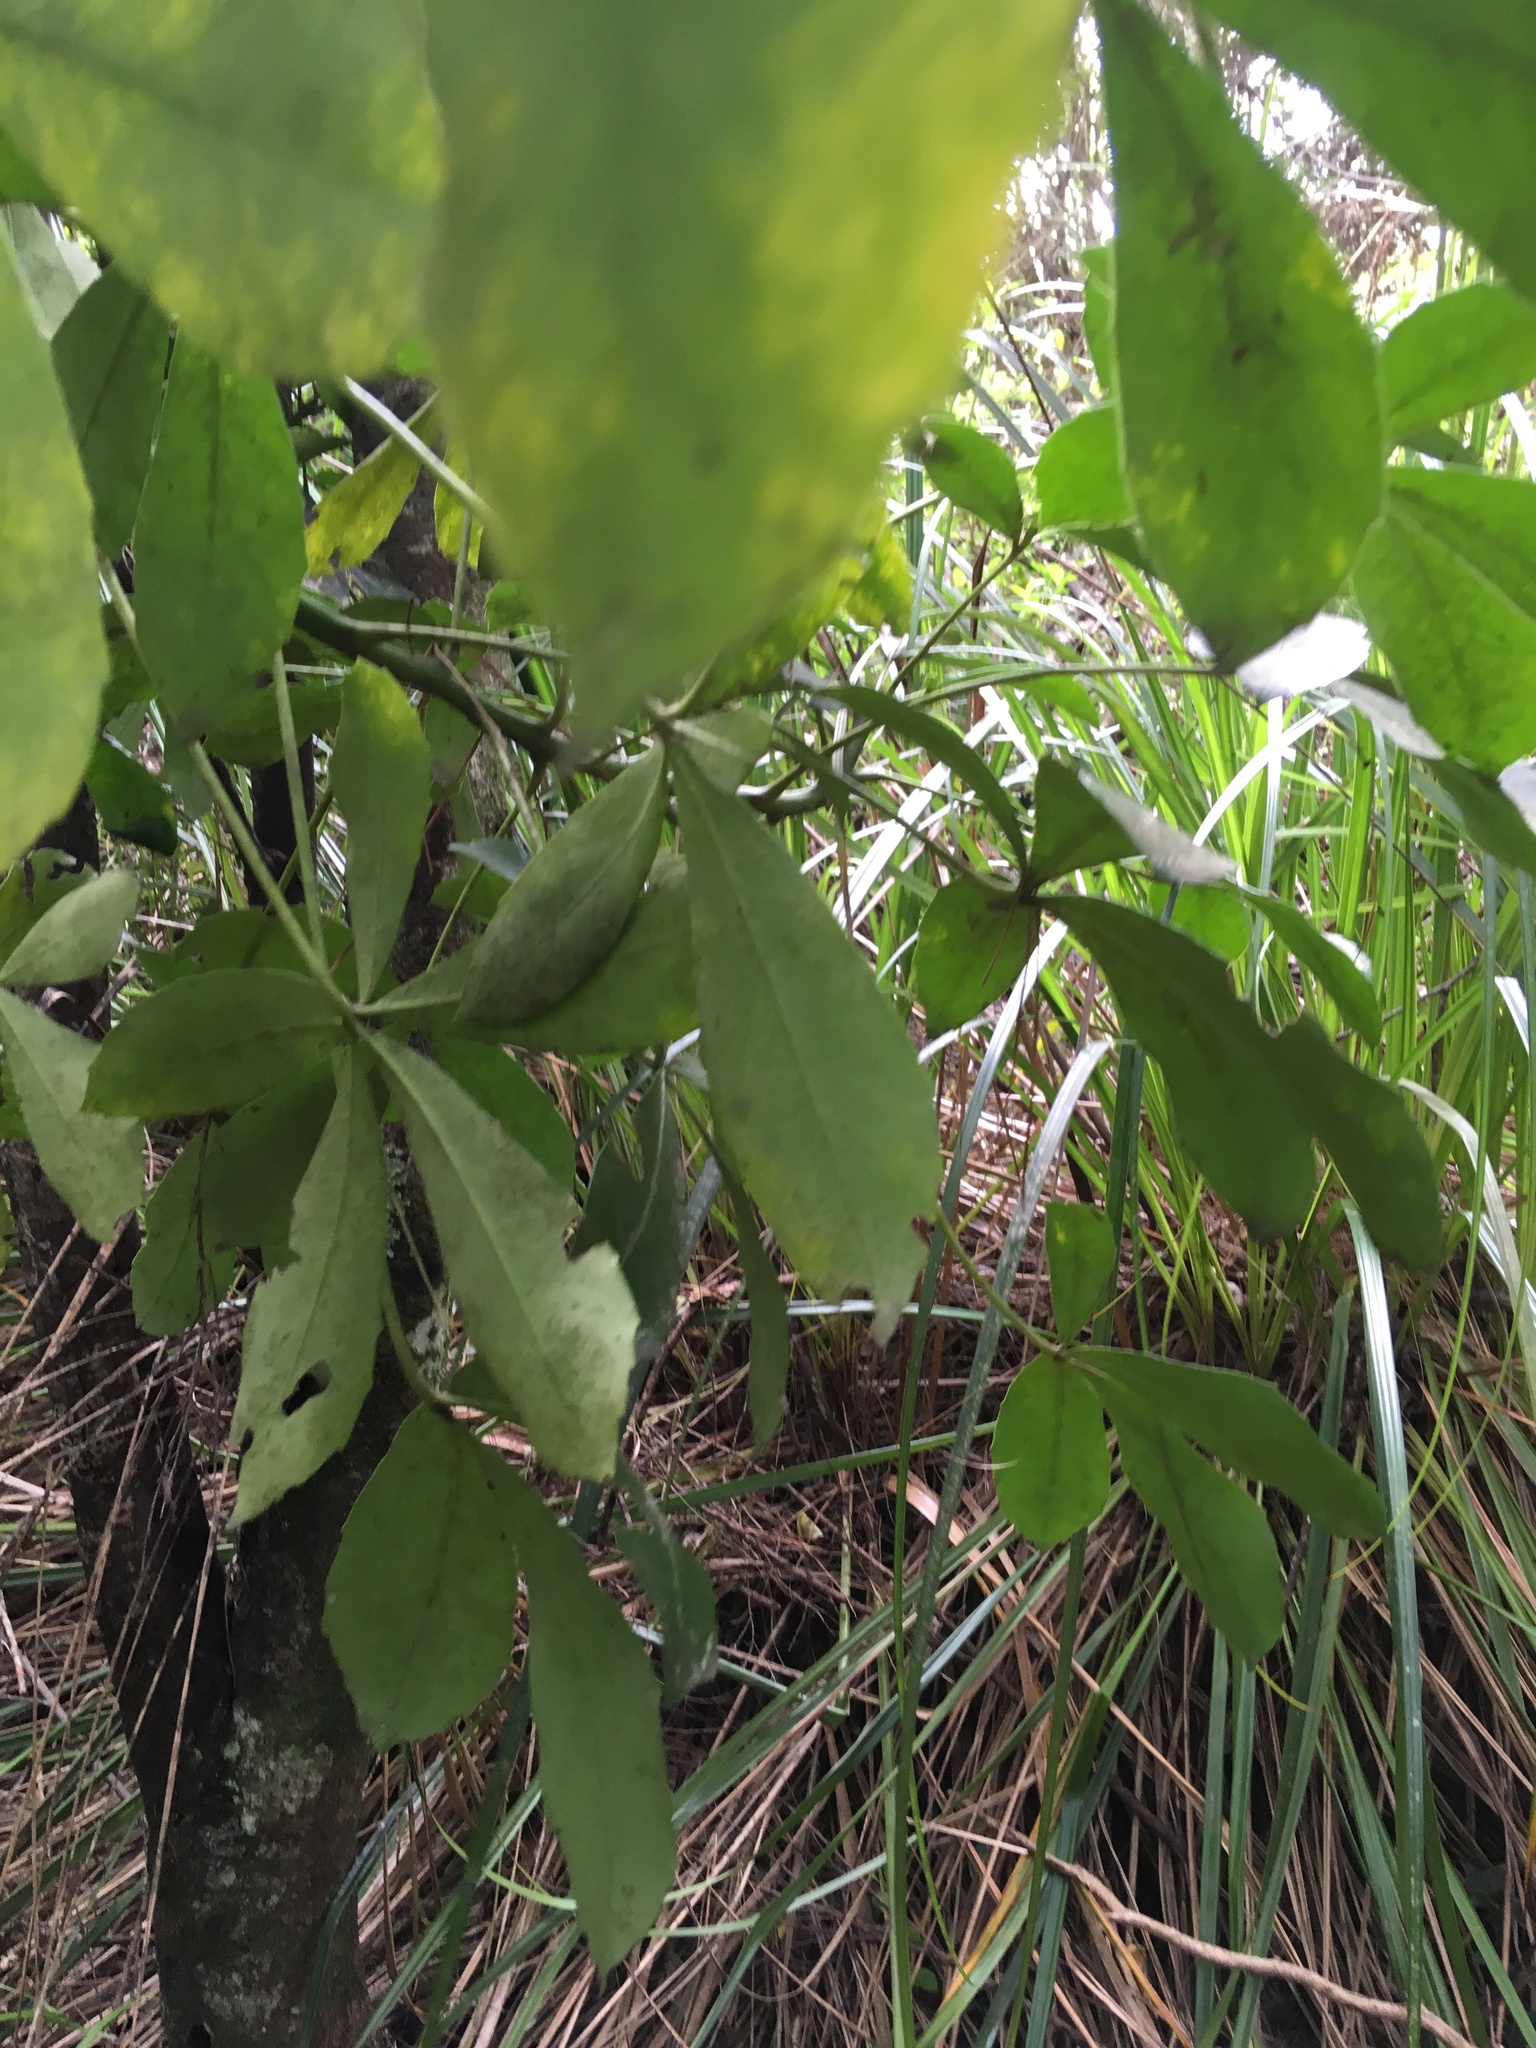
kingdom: Plantae
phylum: Tracheophyta
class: Magnoliopsida
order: Apiales
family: Araliaceae
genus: Pseudopanax
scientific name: Pseudopanax lessonii
